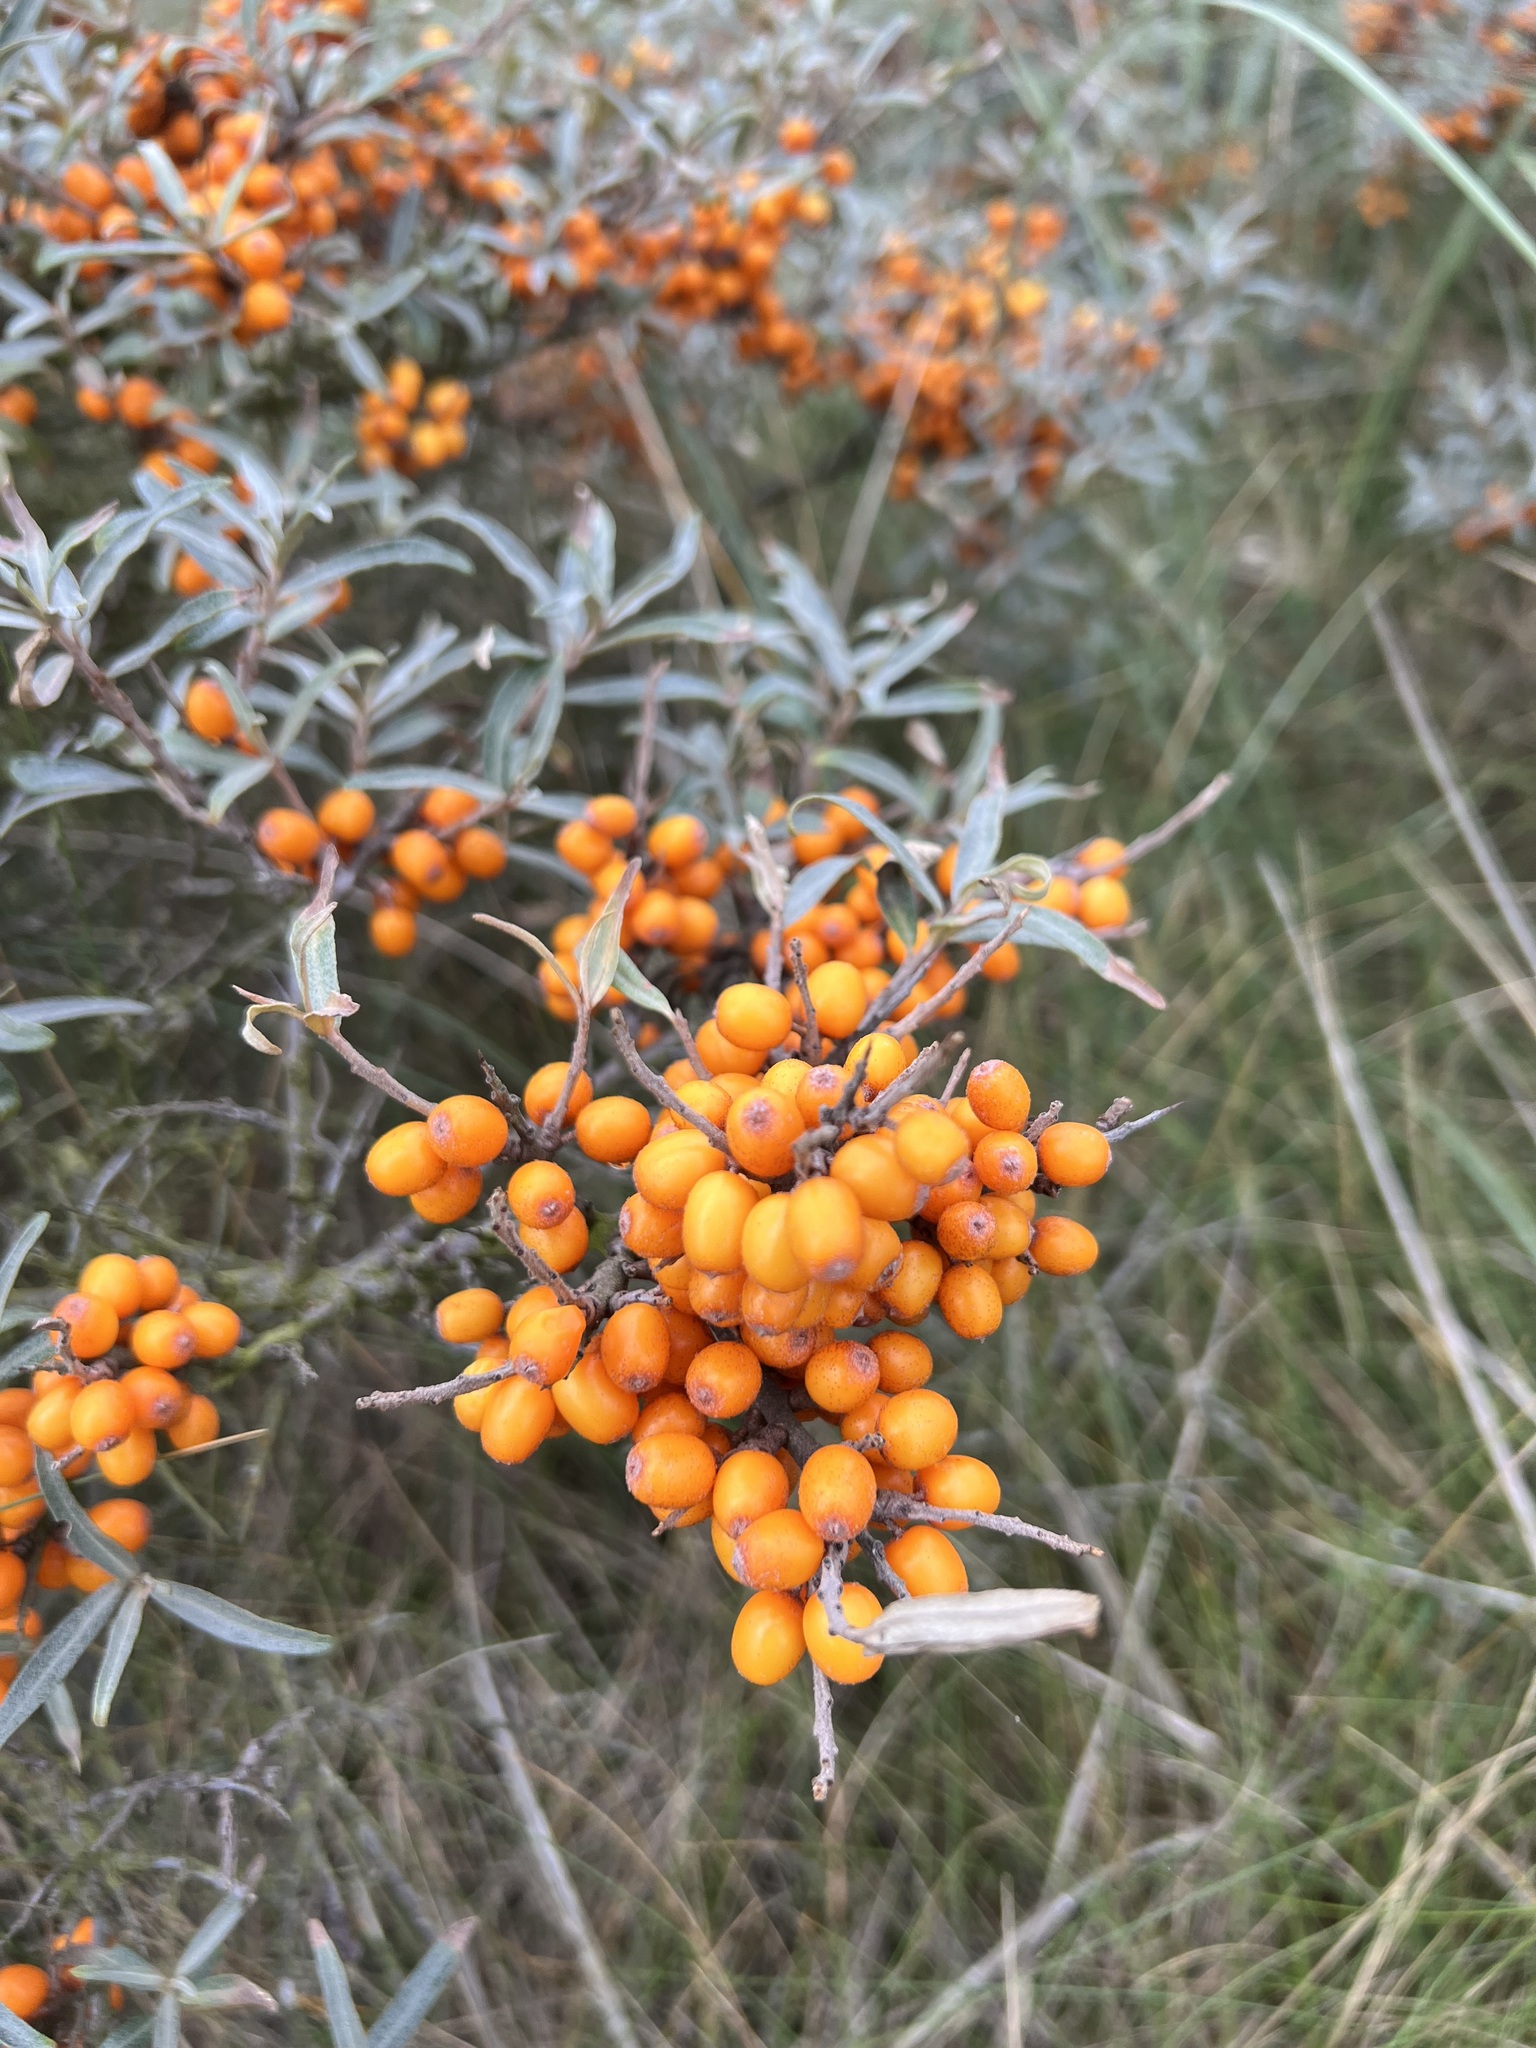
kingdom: Plantae
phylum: Tracheophyta
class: Magnoliopsida
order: Rosales
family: Elaeagnaceae
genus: Hippophae
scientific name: Hippophae rhamnoides
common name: Sea-buckthorn
